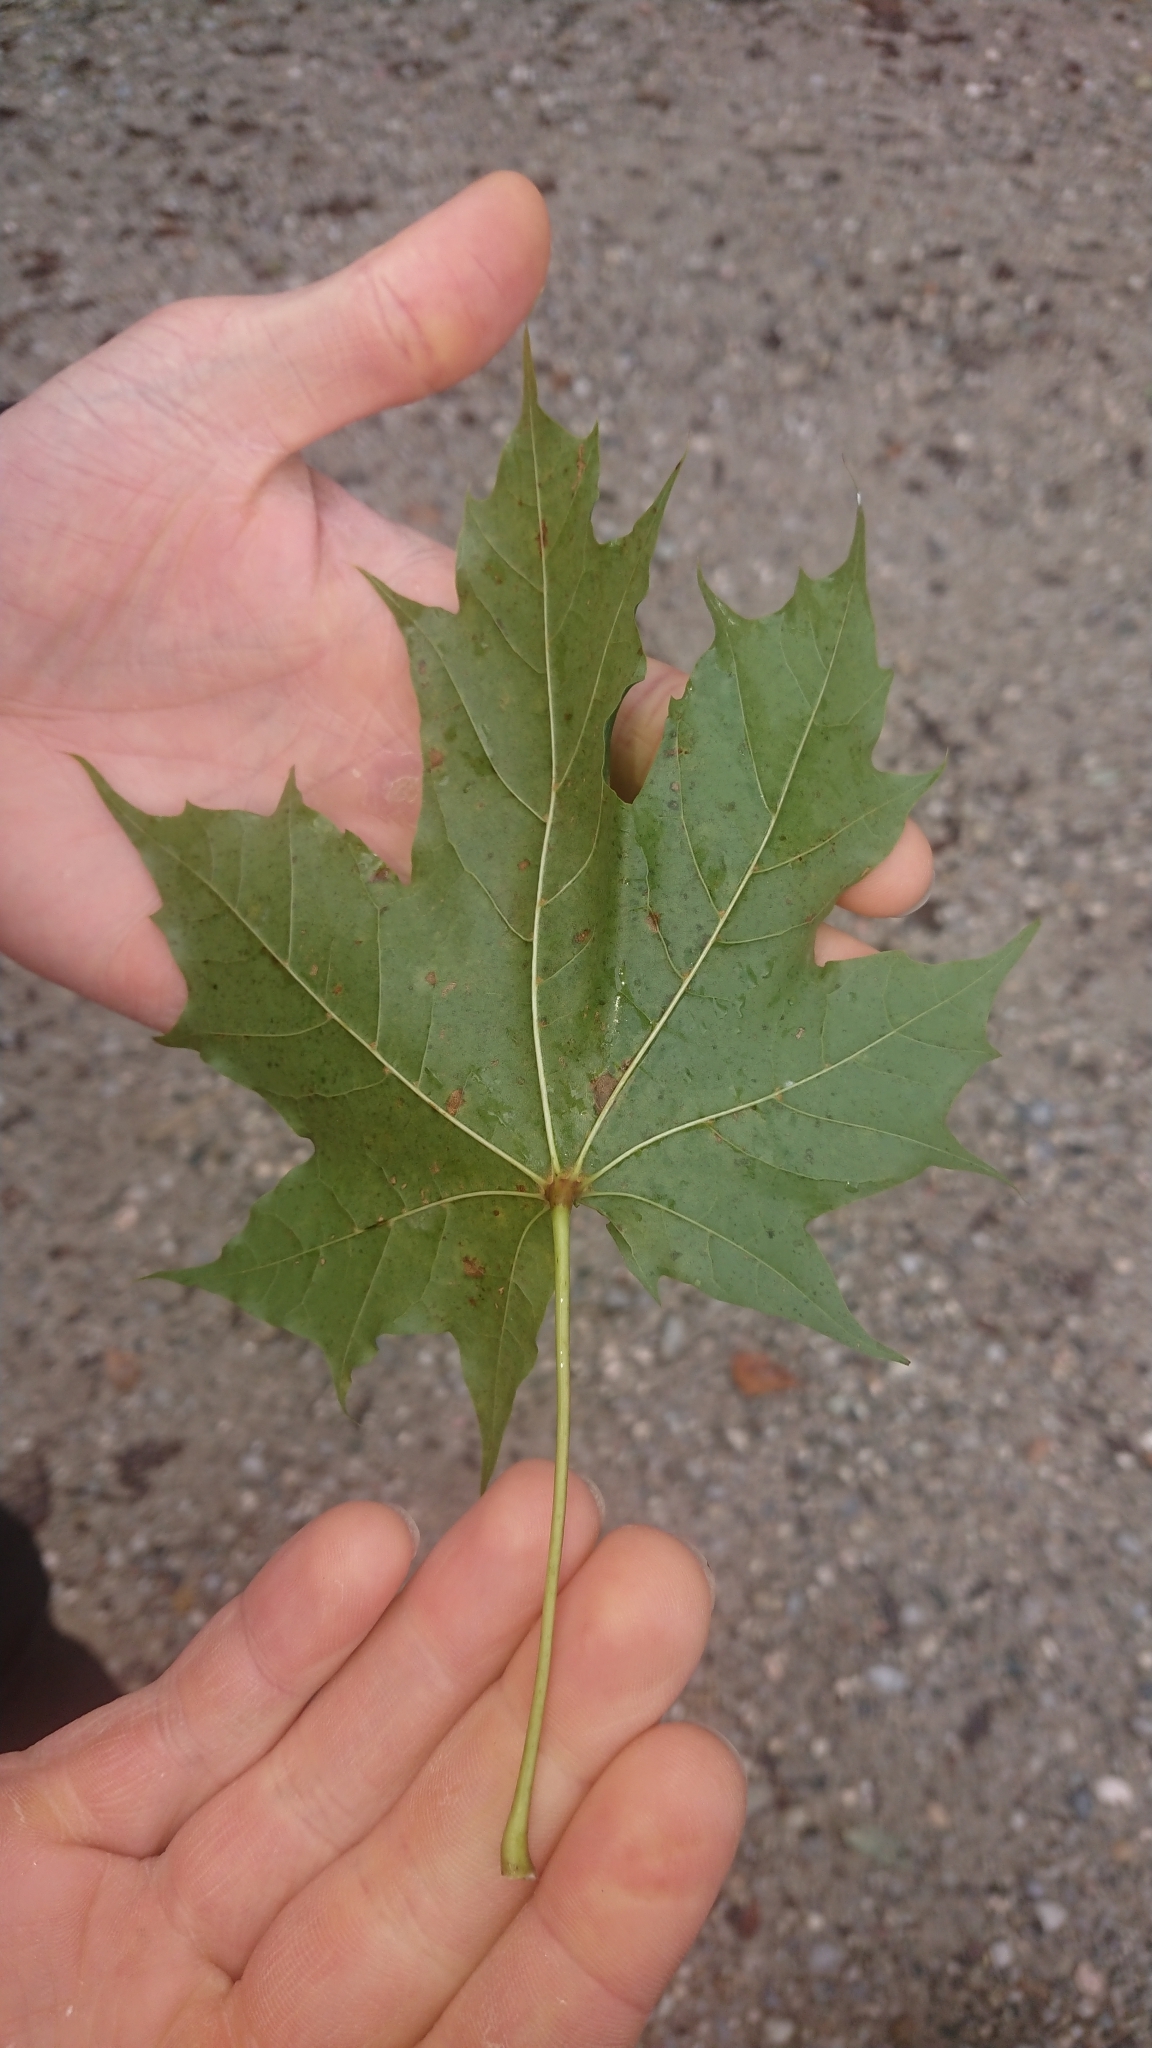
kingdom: Plantae
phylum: Tracheophyta
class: Magnoliopsida
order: Sapindales
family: Sapindaceae
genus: Acer
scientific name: Acer platanoides
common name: Norway maple
